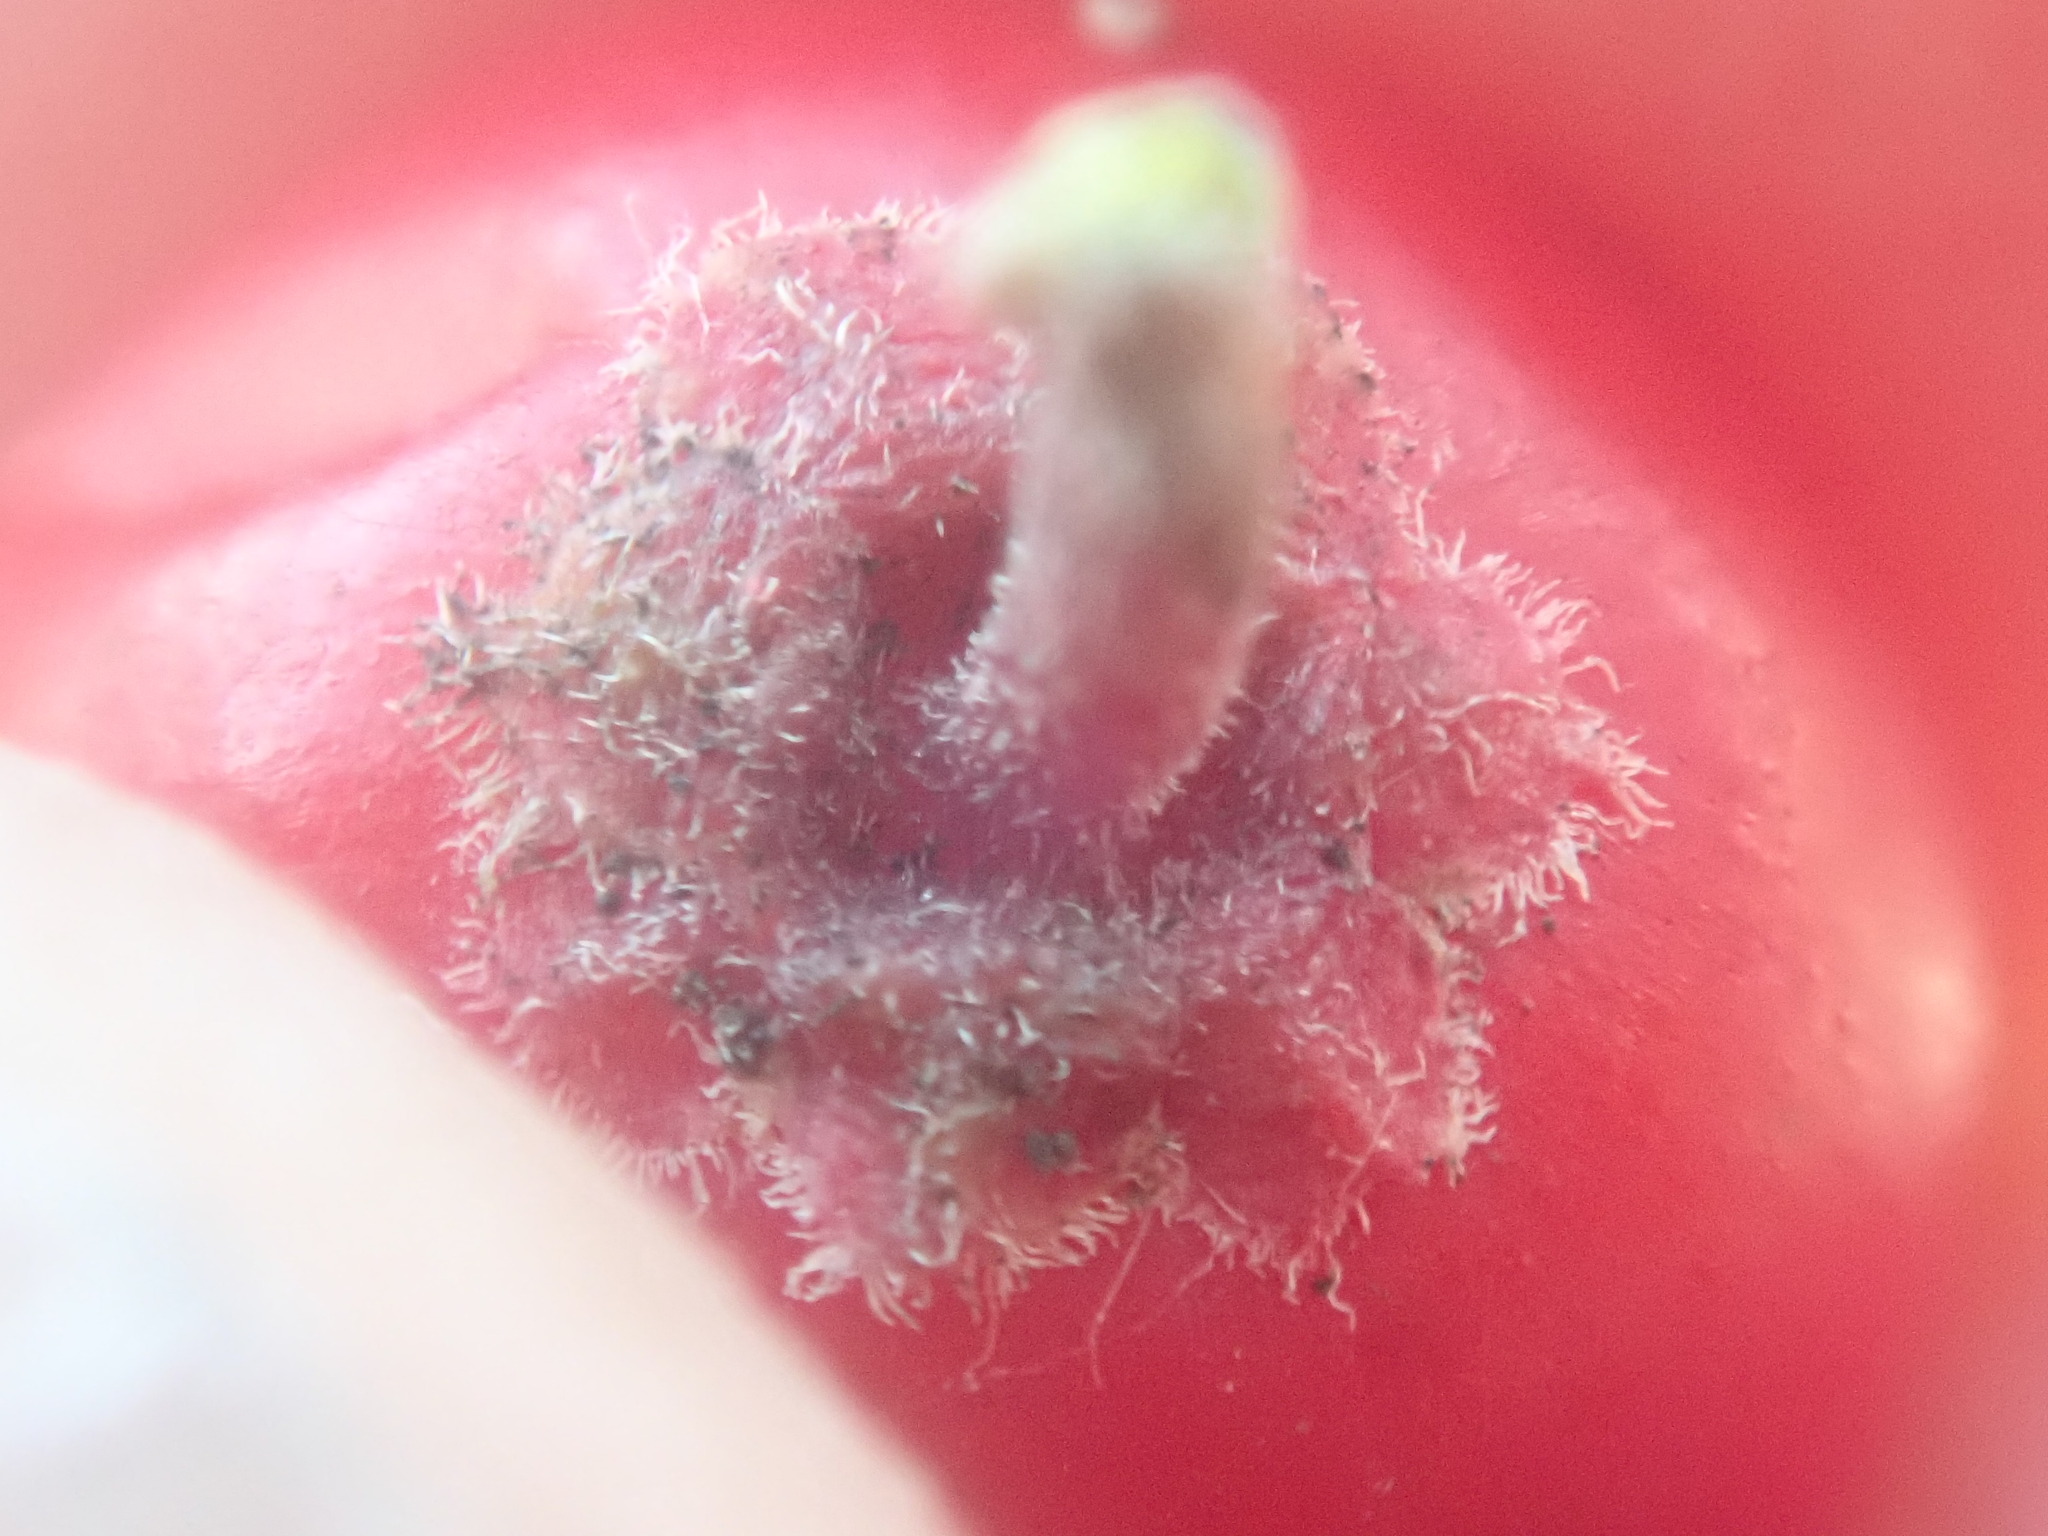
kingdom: Plantae
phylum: Tracheophyta
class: Magnoliopsida
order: Aquifoliales
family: Aquifoliaceae
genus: Ilex
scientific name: Ilex verticillata
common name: Virginia winterberry
